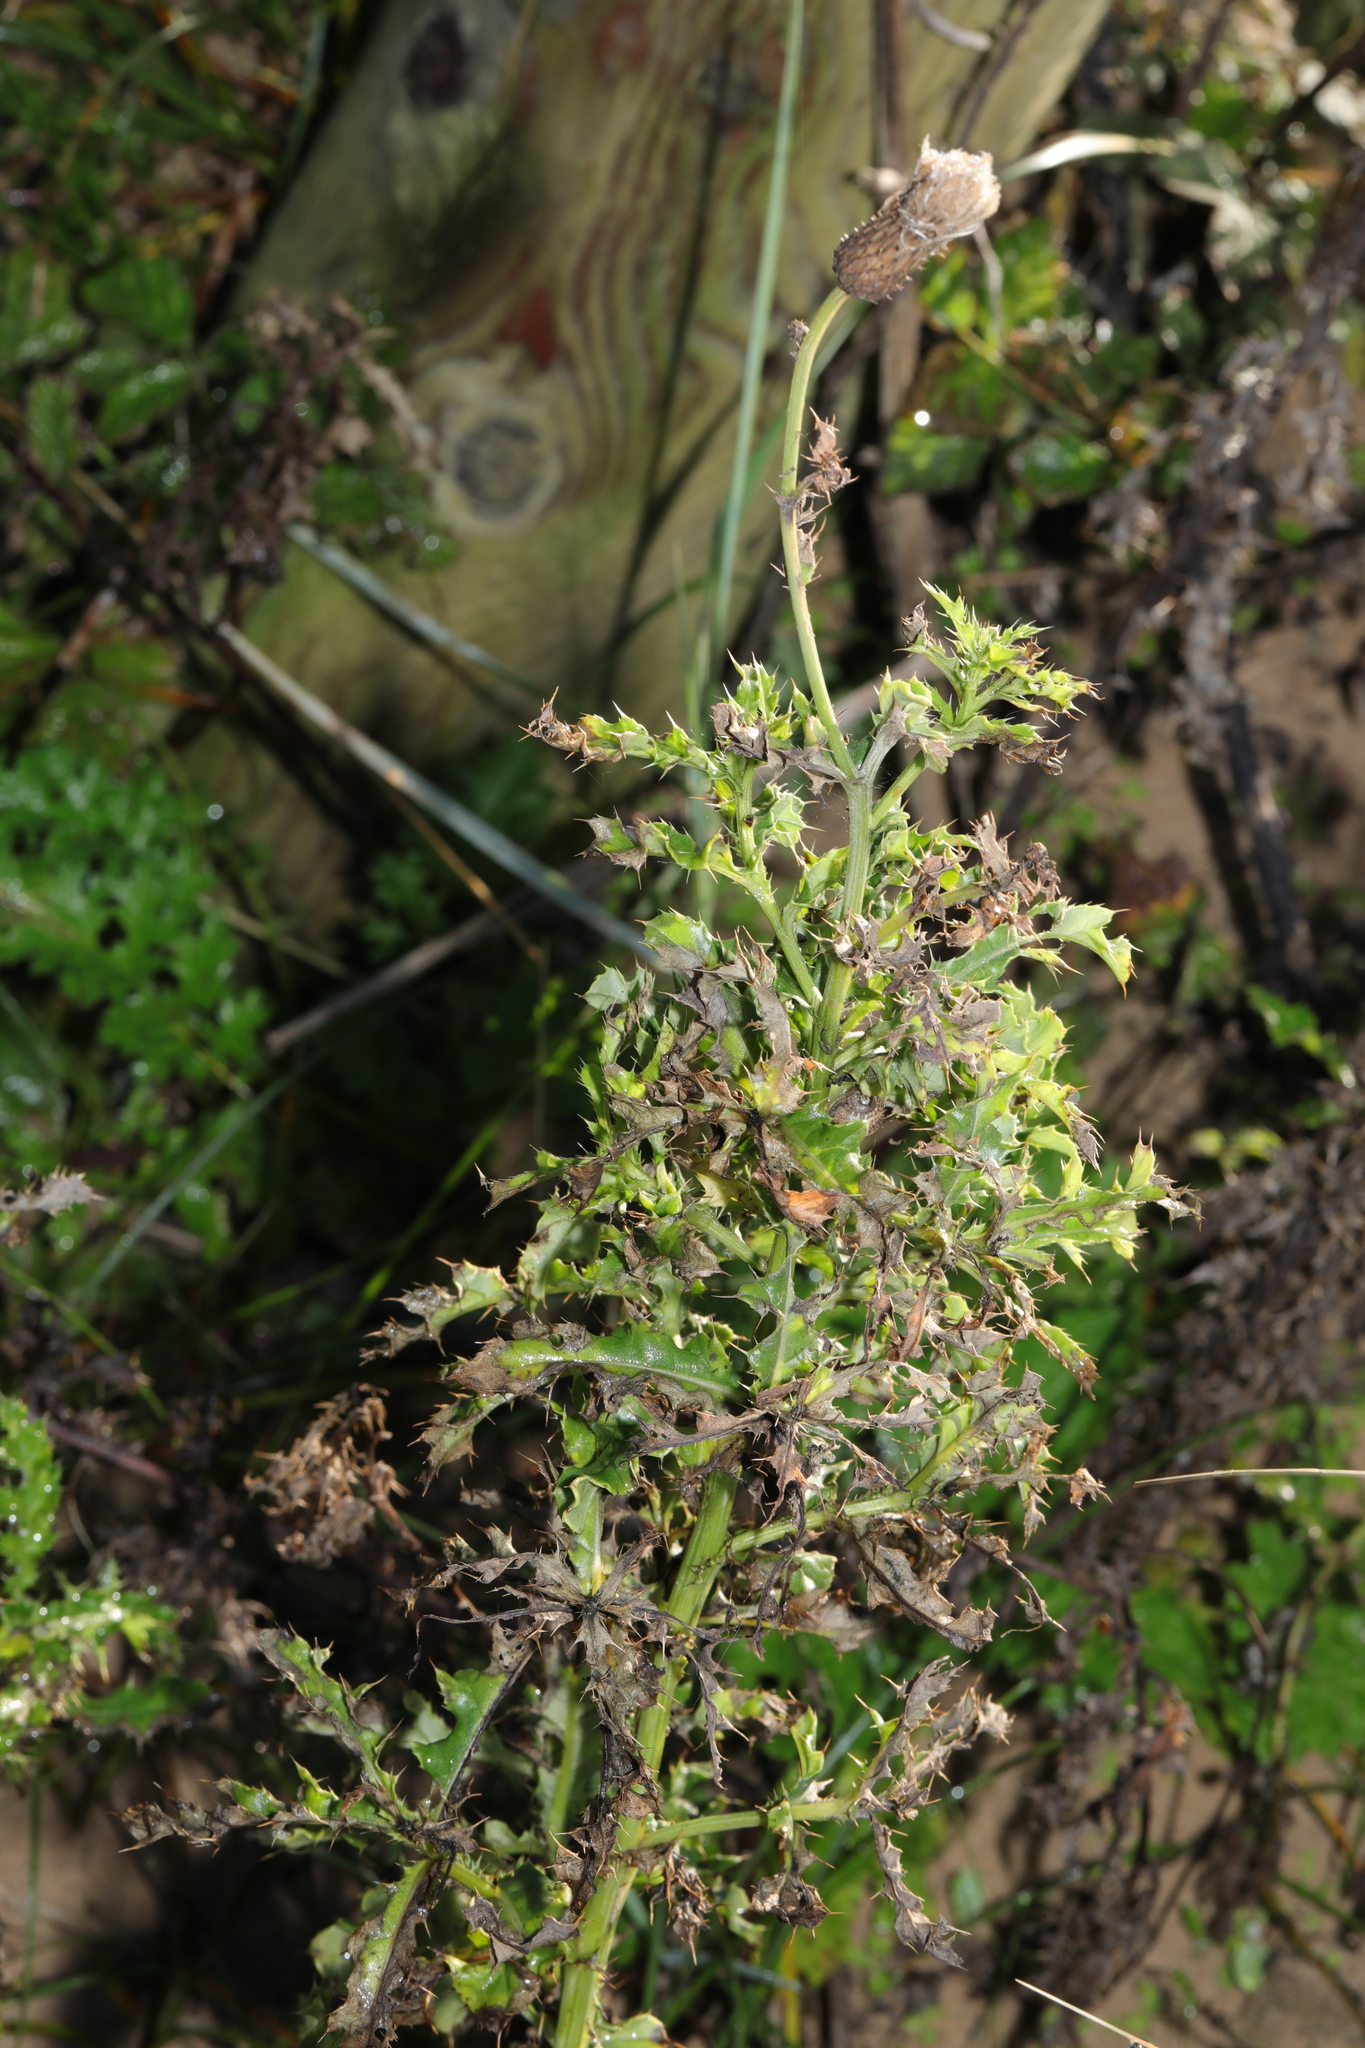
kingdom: Plantae
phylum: Tracheophyta
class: Magnoliopsida
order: Asterales
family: Asteraceae
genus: Cirsium
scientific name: Cirsium arvense
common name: Creeping thistle
